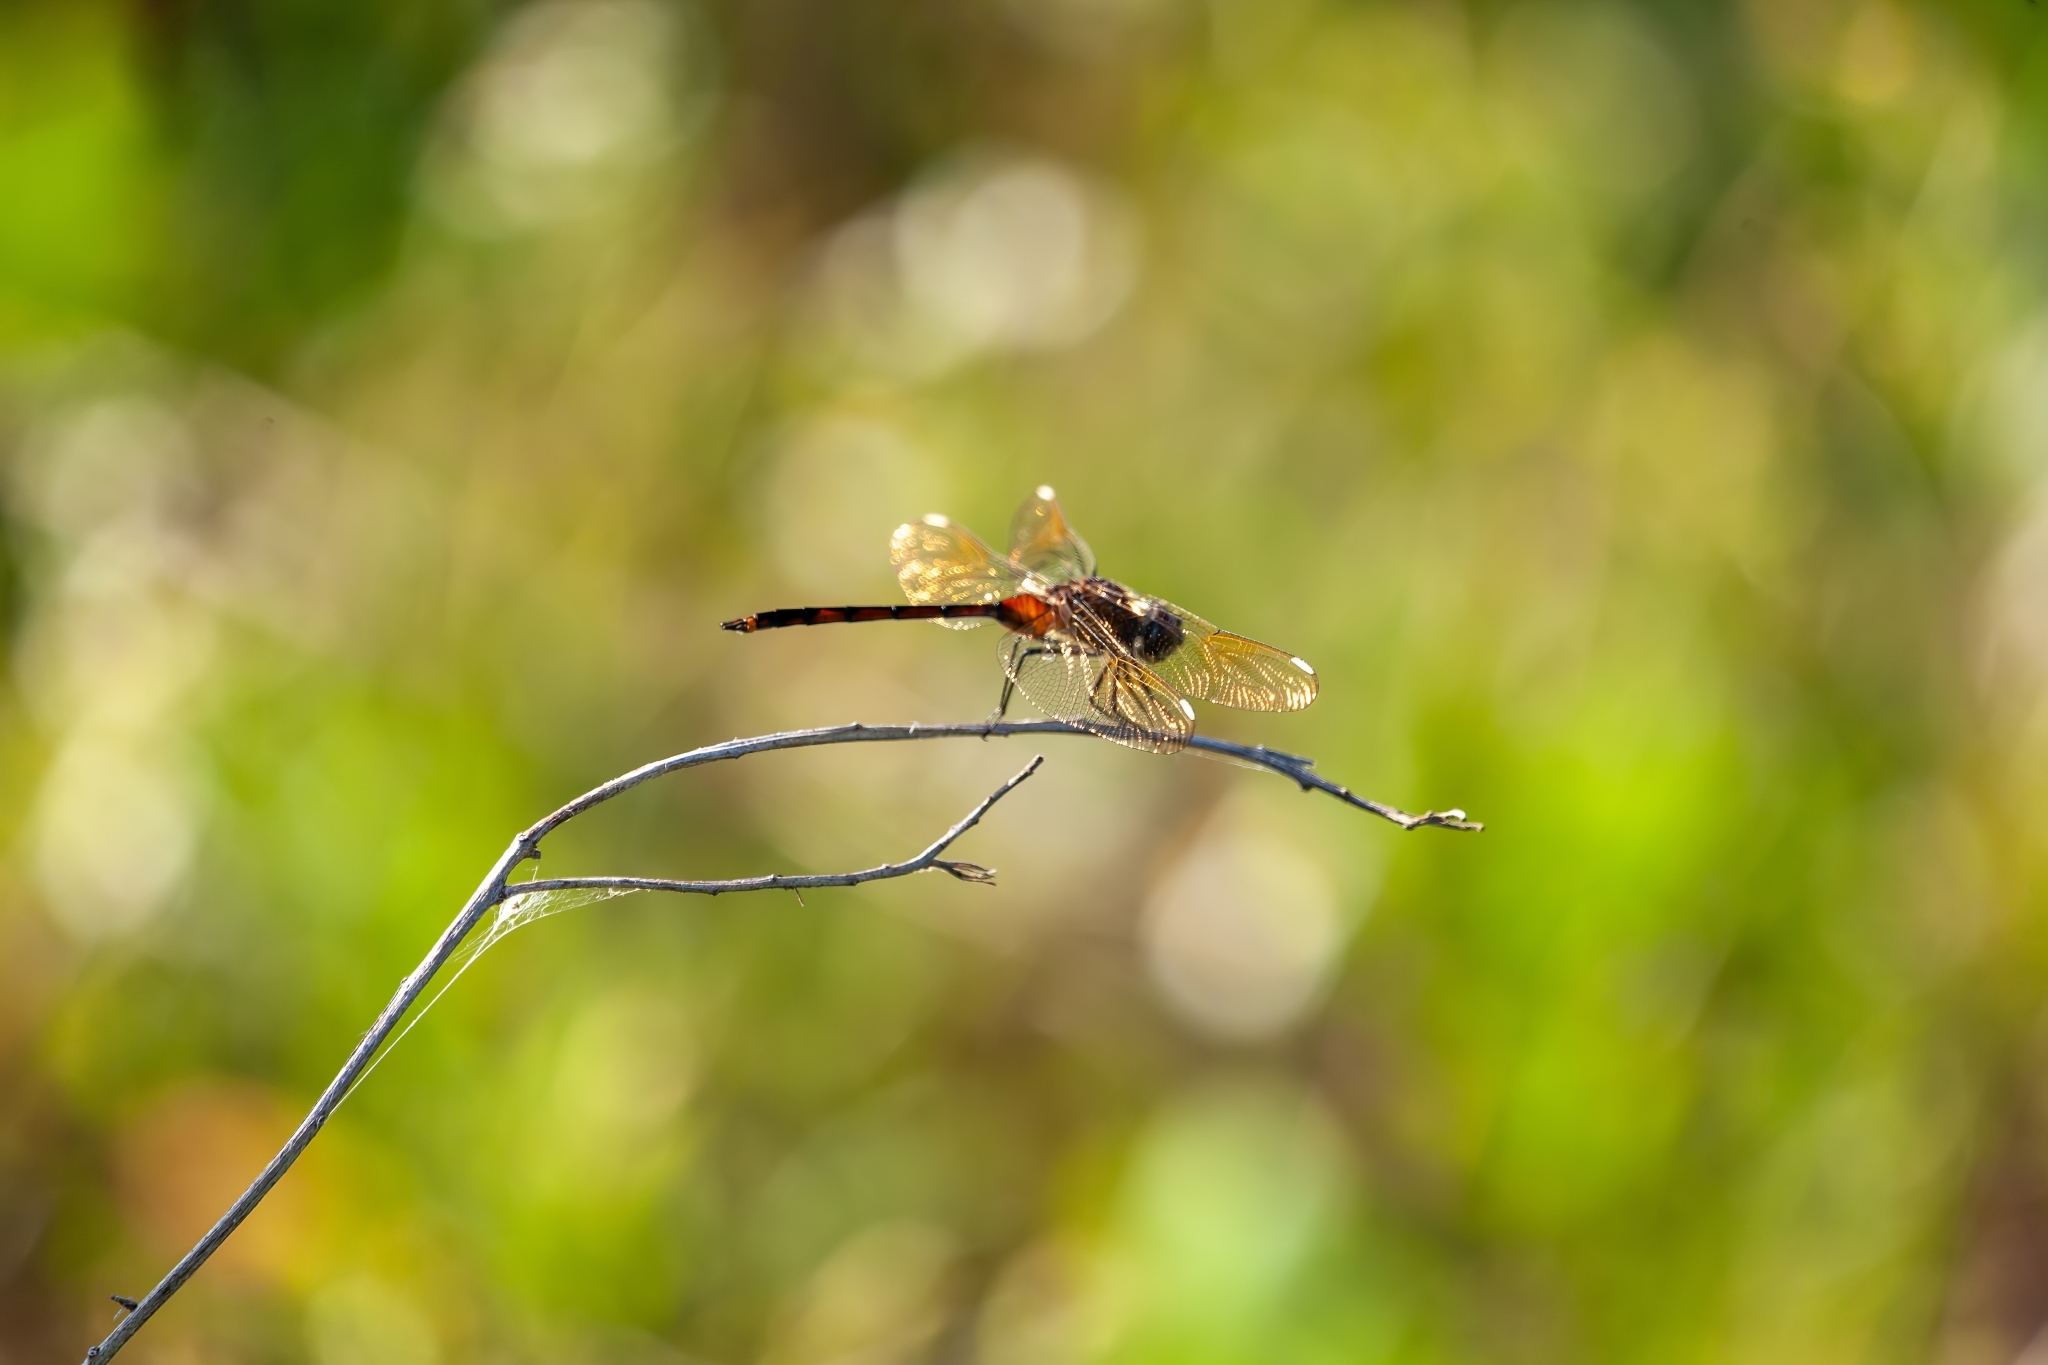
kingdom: Animalia
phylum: Arthropoda
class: Insecta
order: Odonata
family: Libellulidae
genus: Brachymesia
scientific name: Brachymesia gravida
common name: Four-spotted pennant
